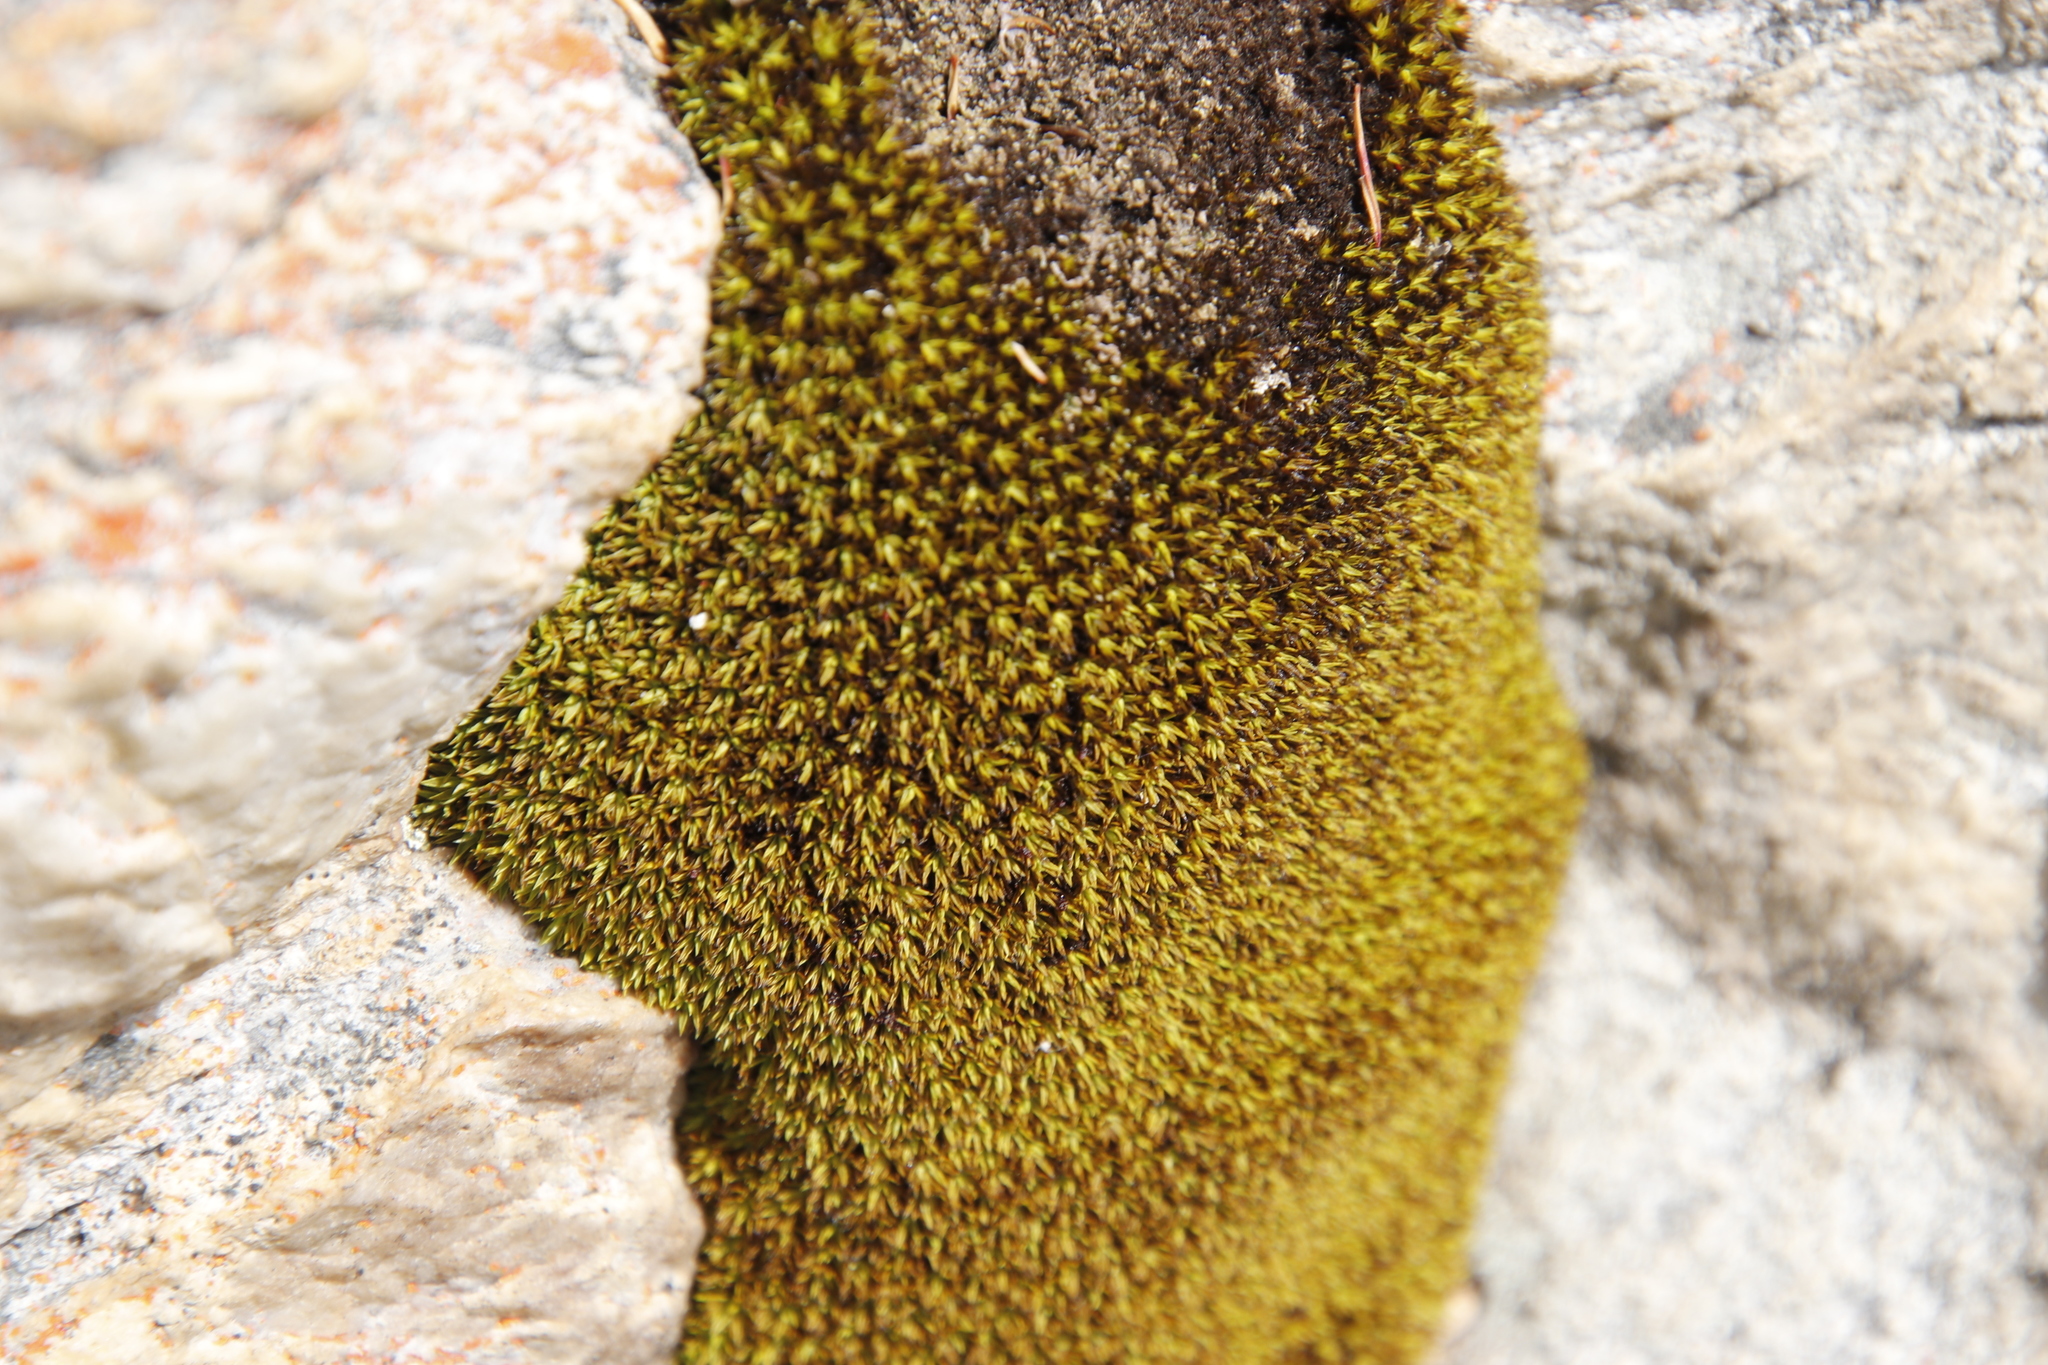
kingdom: Plantae
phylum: Bryophyta
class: Bryopsida
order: Pottiales
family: Pottiaceae
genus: Trichostomum
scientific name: Trichostomum brachydontium
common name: Variable crisp-moss
